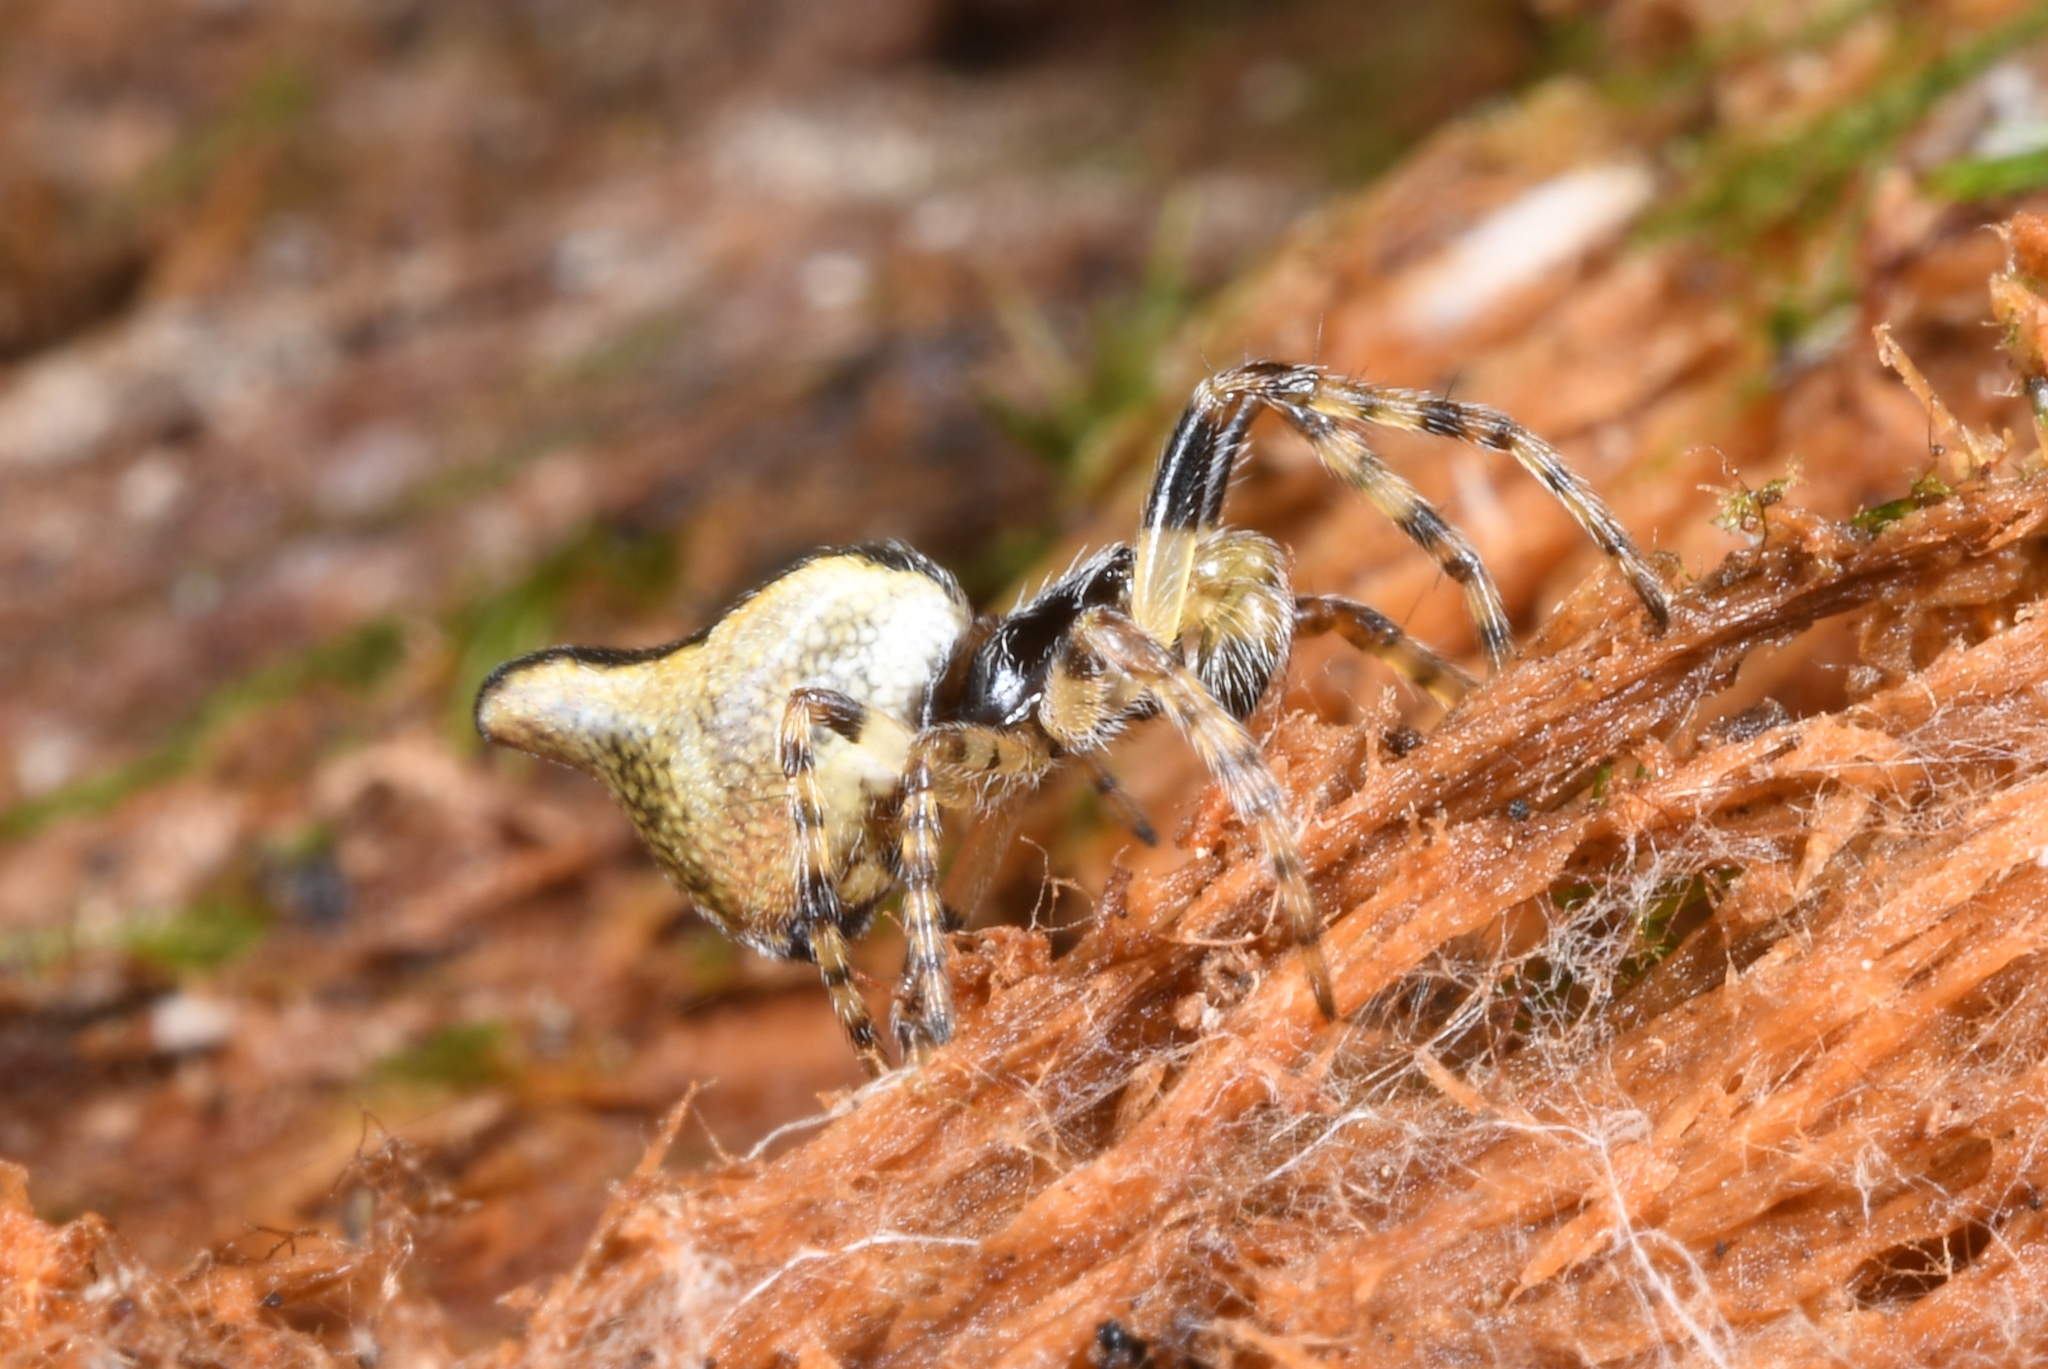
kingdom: Animalia
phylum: Arthropoda
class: Arachnida
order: Araneae
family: Araneidae
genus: Cyclosa
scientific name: Cyclosa conica
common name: Conical trashline orbweaver
